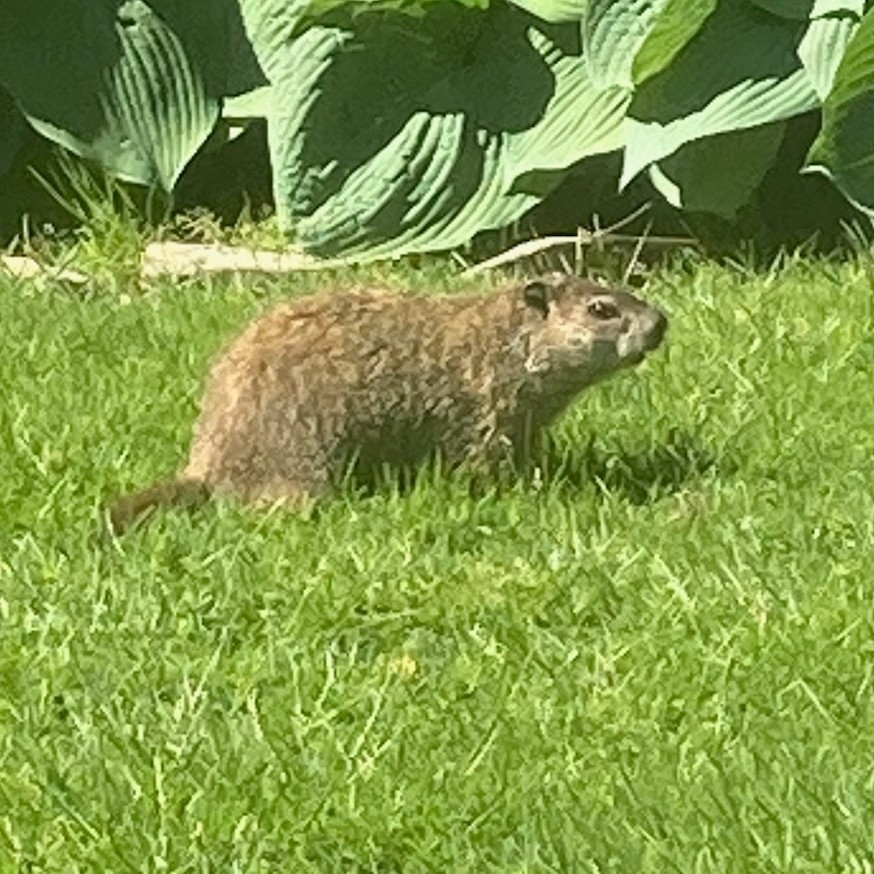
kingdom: Animalia
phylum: Chordata
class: Mammalia
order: Rodentia
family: Sciuridae
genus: Marmota
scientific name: Marmota monax
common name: Groundhog
